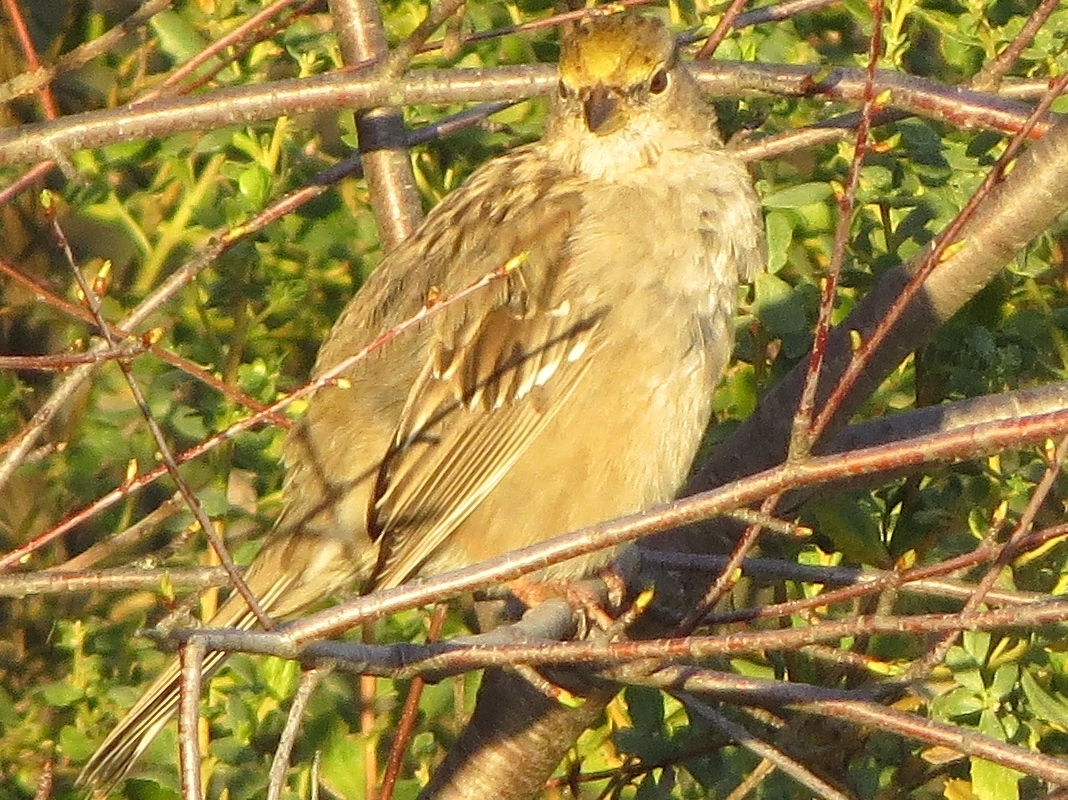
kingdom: Animalia
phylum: Chordata
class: Aves
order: Passeriformes
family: Passerellidae
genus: Zonotrichia
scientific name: Zonotrichia atricapilla
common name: Golden-crowned sparrow
